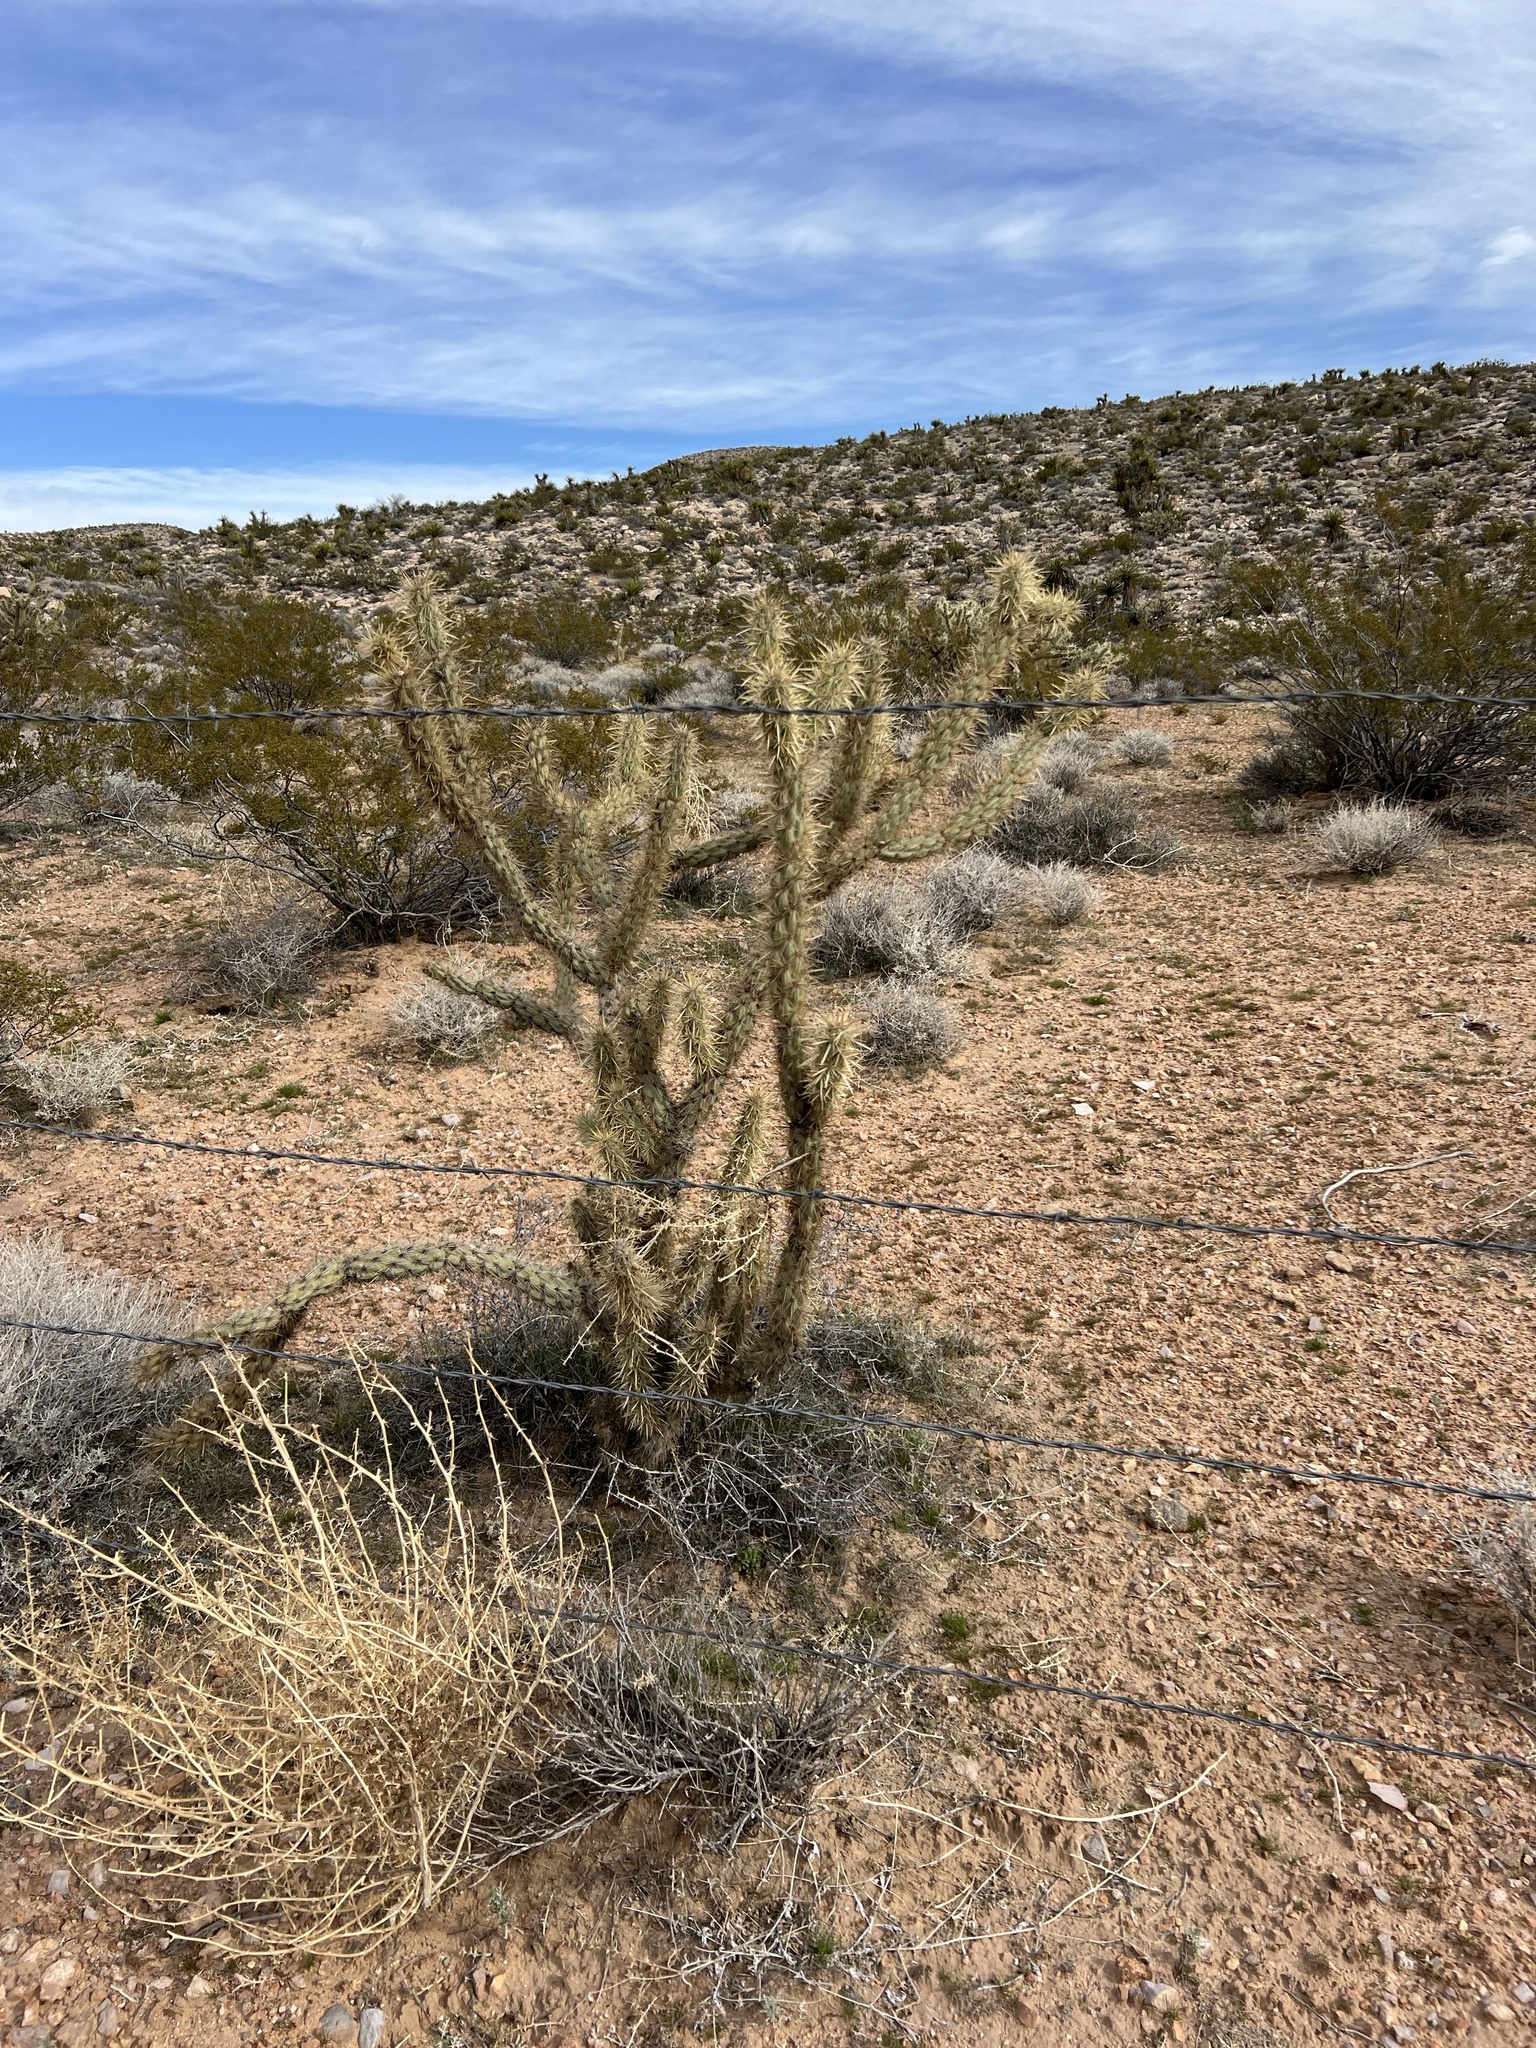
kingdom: Plantae
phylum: Tracheophyta
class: Magnoliopsida
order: Caryophyllales
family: Cactaceae
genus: Cylindropuntia
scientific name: Cylindropuntia acanthocarpa
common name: Buckhorn cholla
